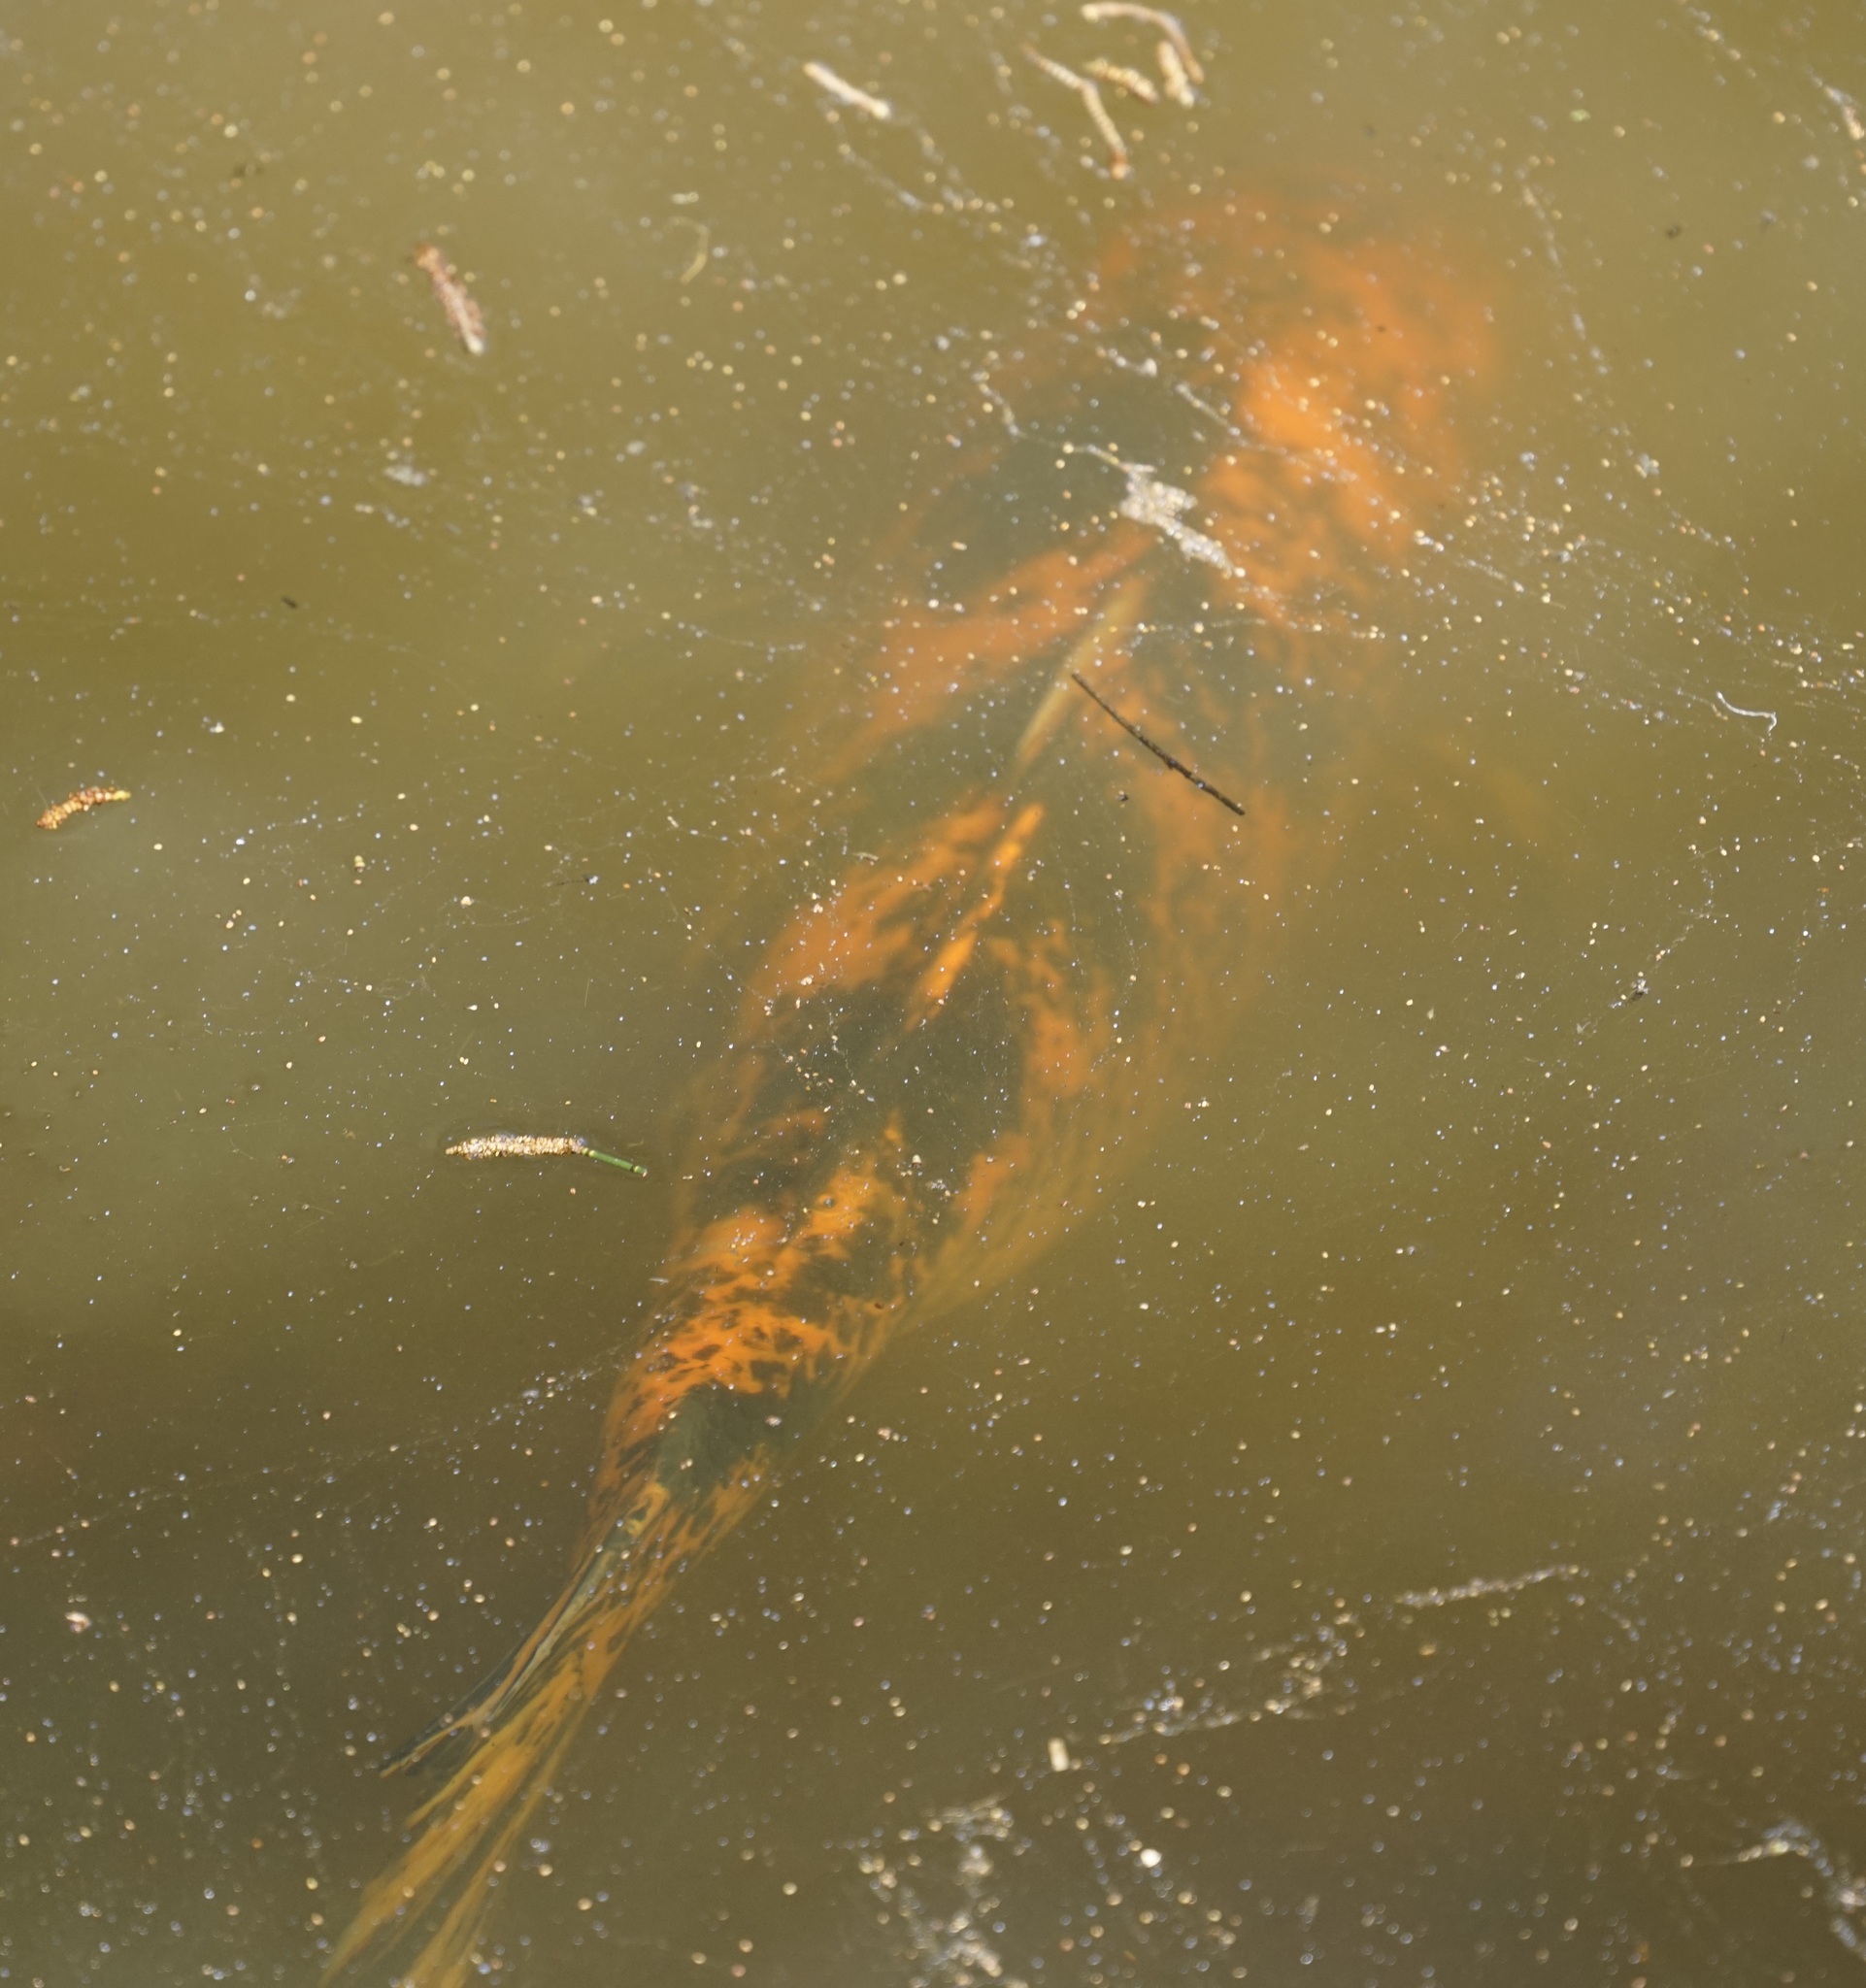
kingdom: Animalia
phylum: Chordata
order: Cypriniformes
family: Cyprinidae
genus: Cyprinus
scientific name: Cyprinus rubrofuscus
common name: Koi
